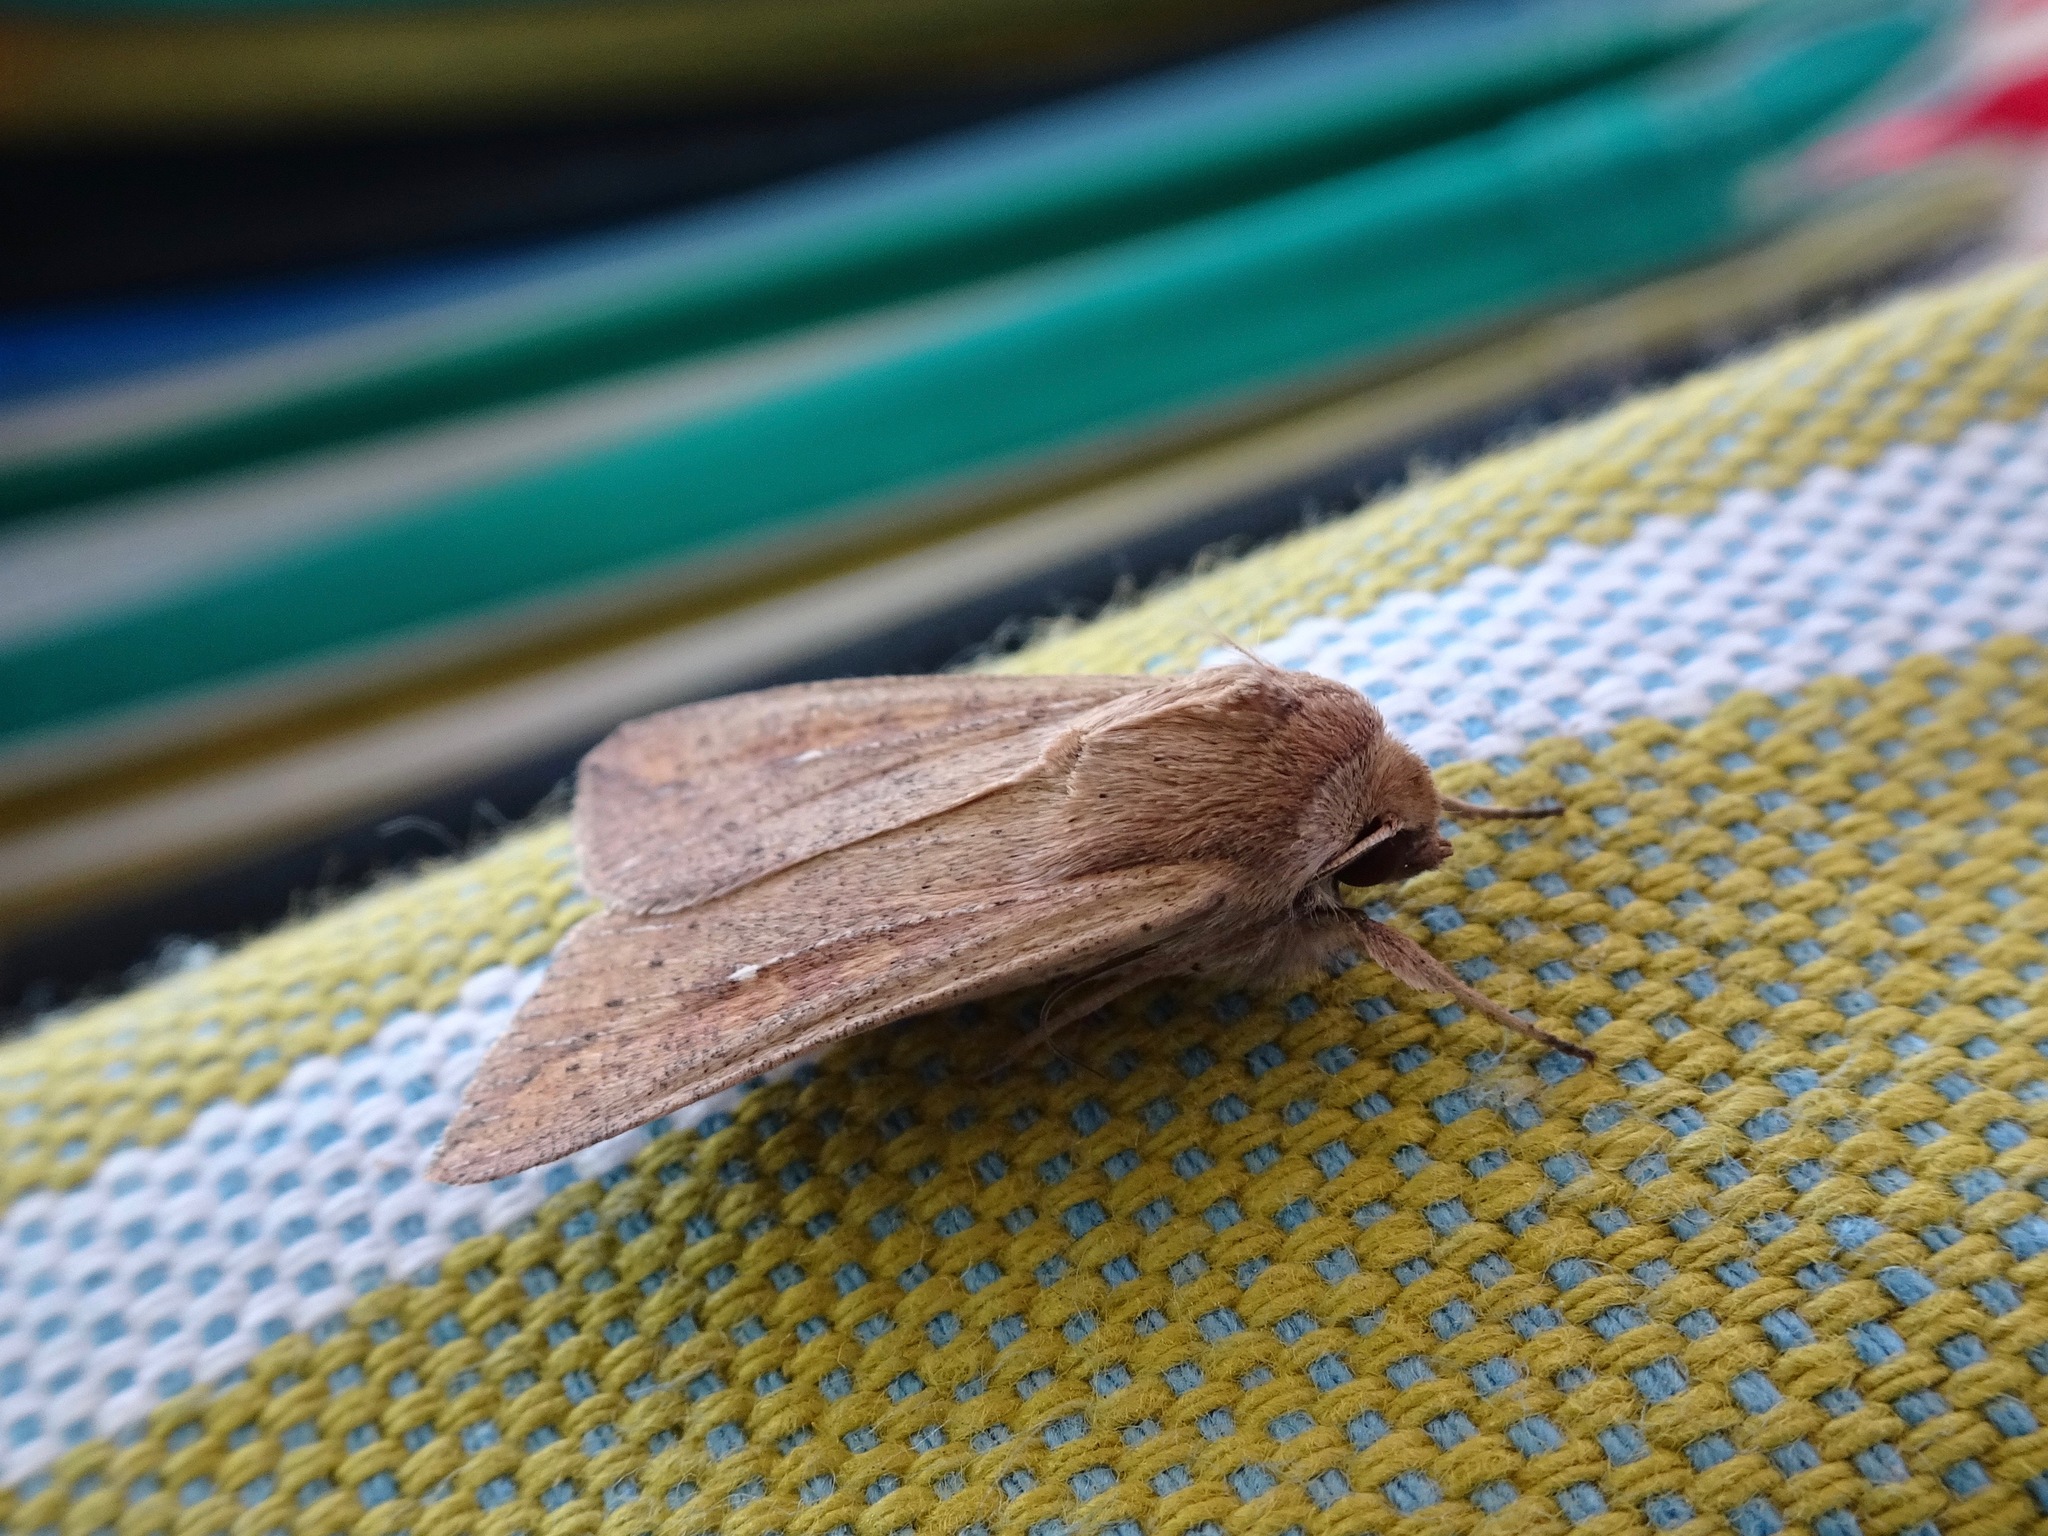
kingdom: Animalia
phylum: Arthropoda
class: Insecta
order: Lepidoptera
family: Noctuidae
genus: Mythimna
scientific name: Mythimna unipuncta
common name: White-speck
